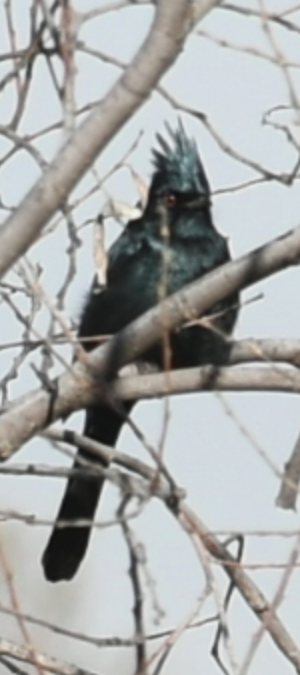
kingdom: Animalia
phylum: Chordata
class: Aves
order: Passeriformes
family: Ptilogonatidae
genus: Phainopepla
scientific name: Phainopepla nitens
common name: Phainopepla
